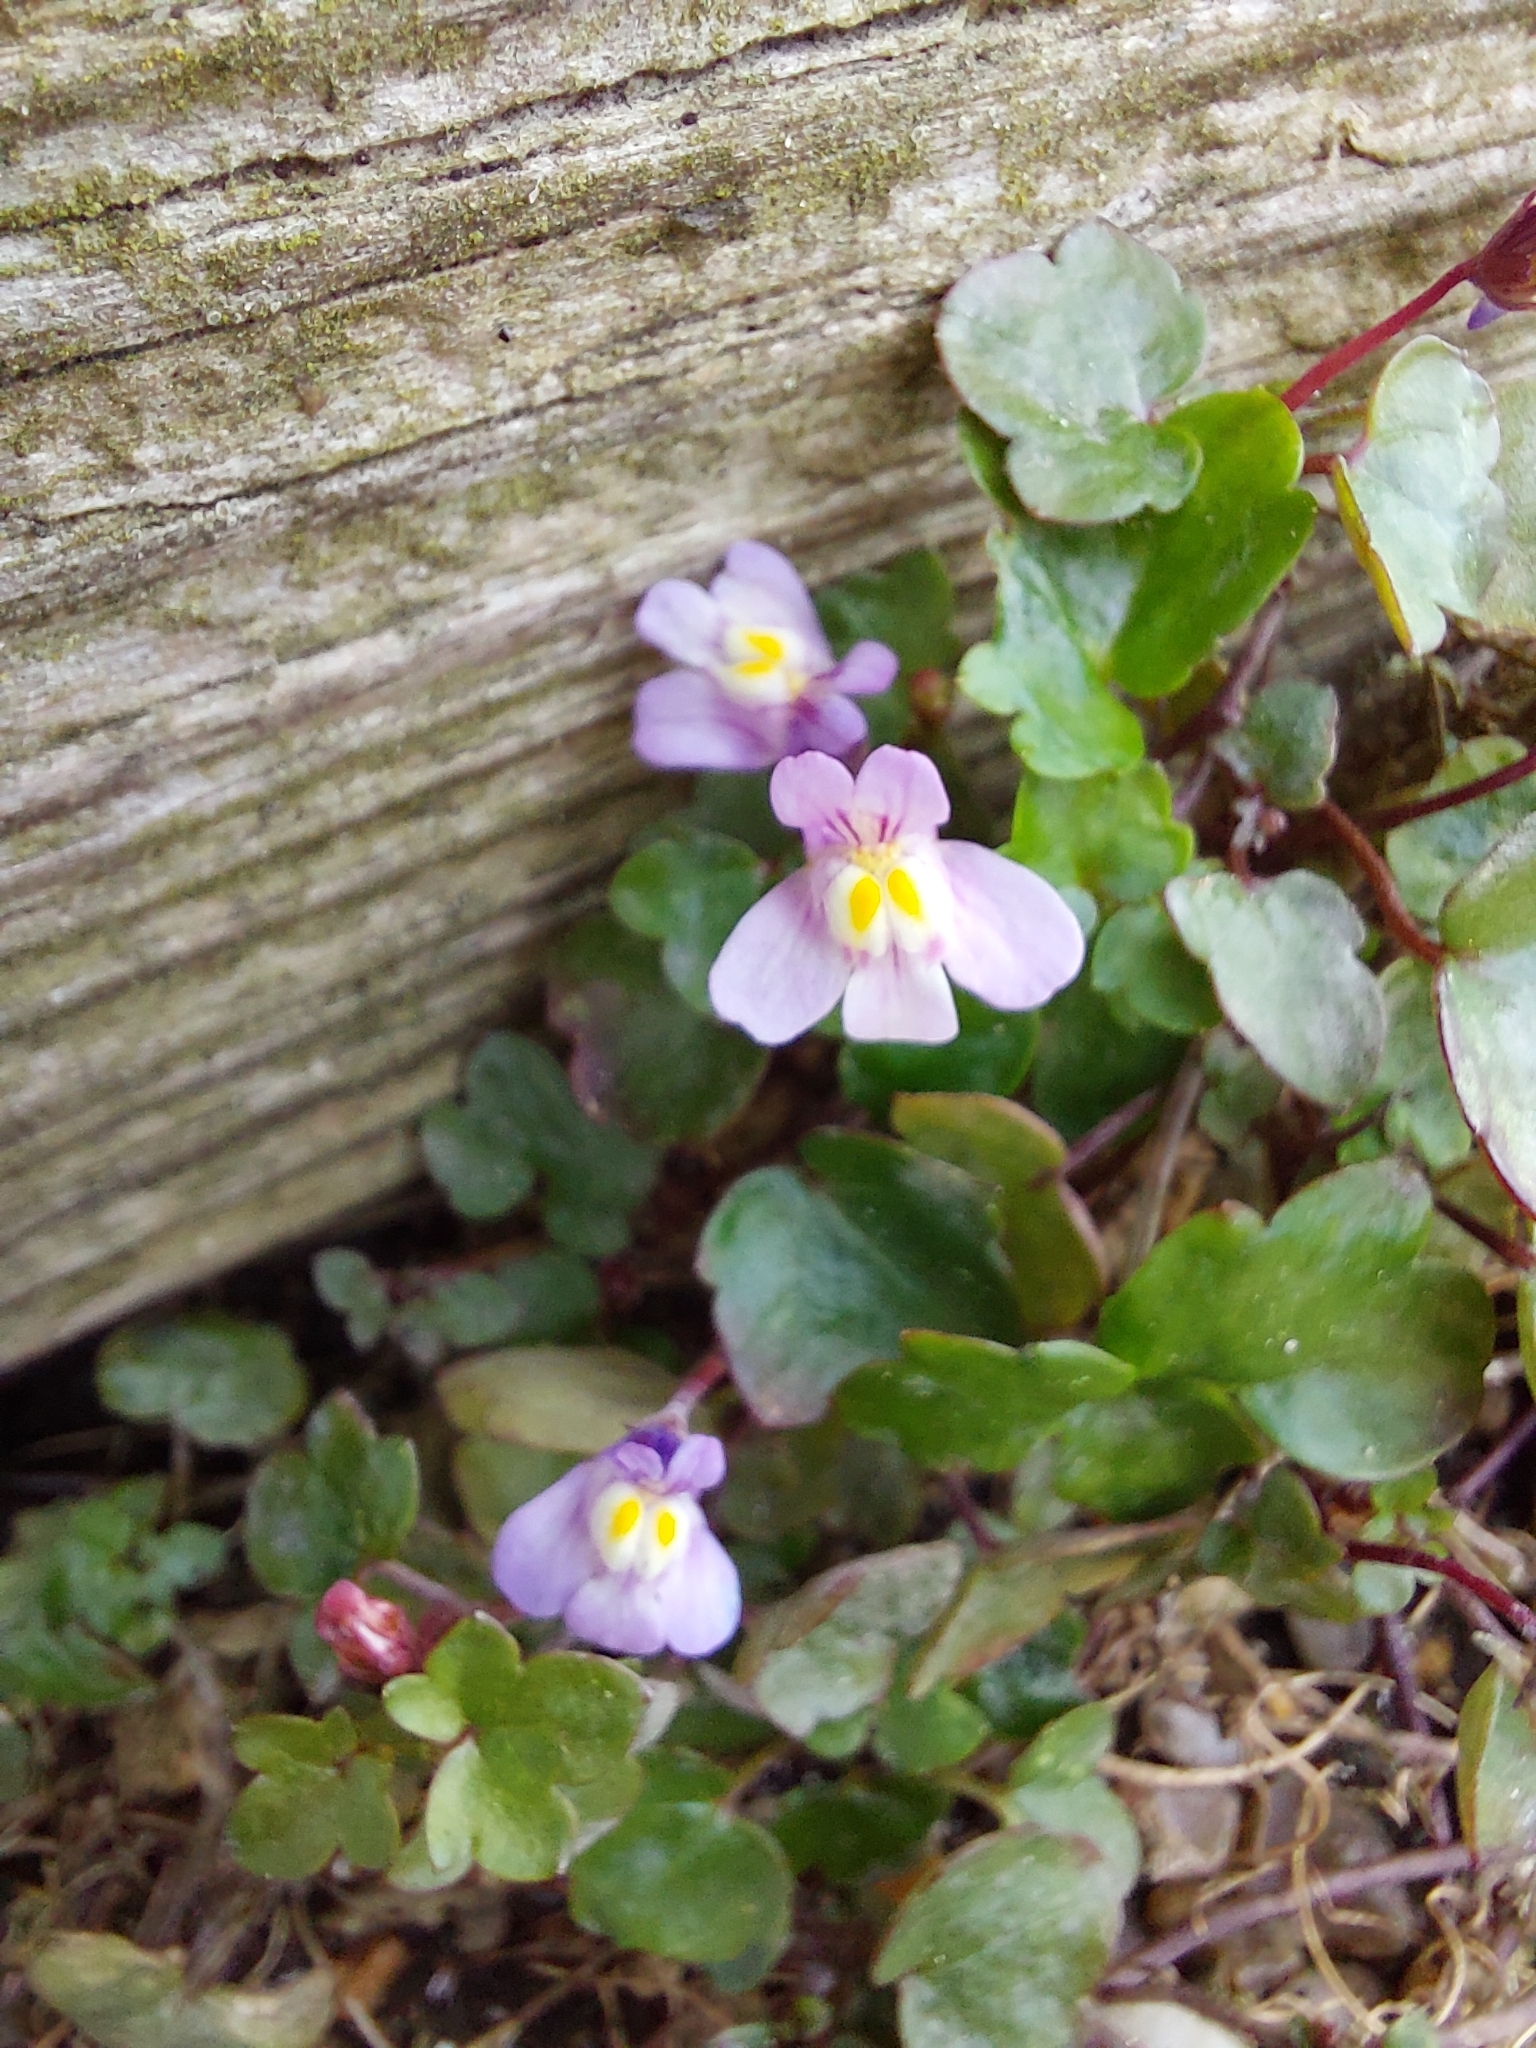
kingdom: Plantae
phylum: Tracheophyta
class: Magnoliopsida
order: Lamiales
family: Plantaginaceae
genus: Cymbalaria
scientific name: Cymbalaria muralis
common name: Ivy-leaved toadflax
